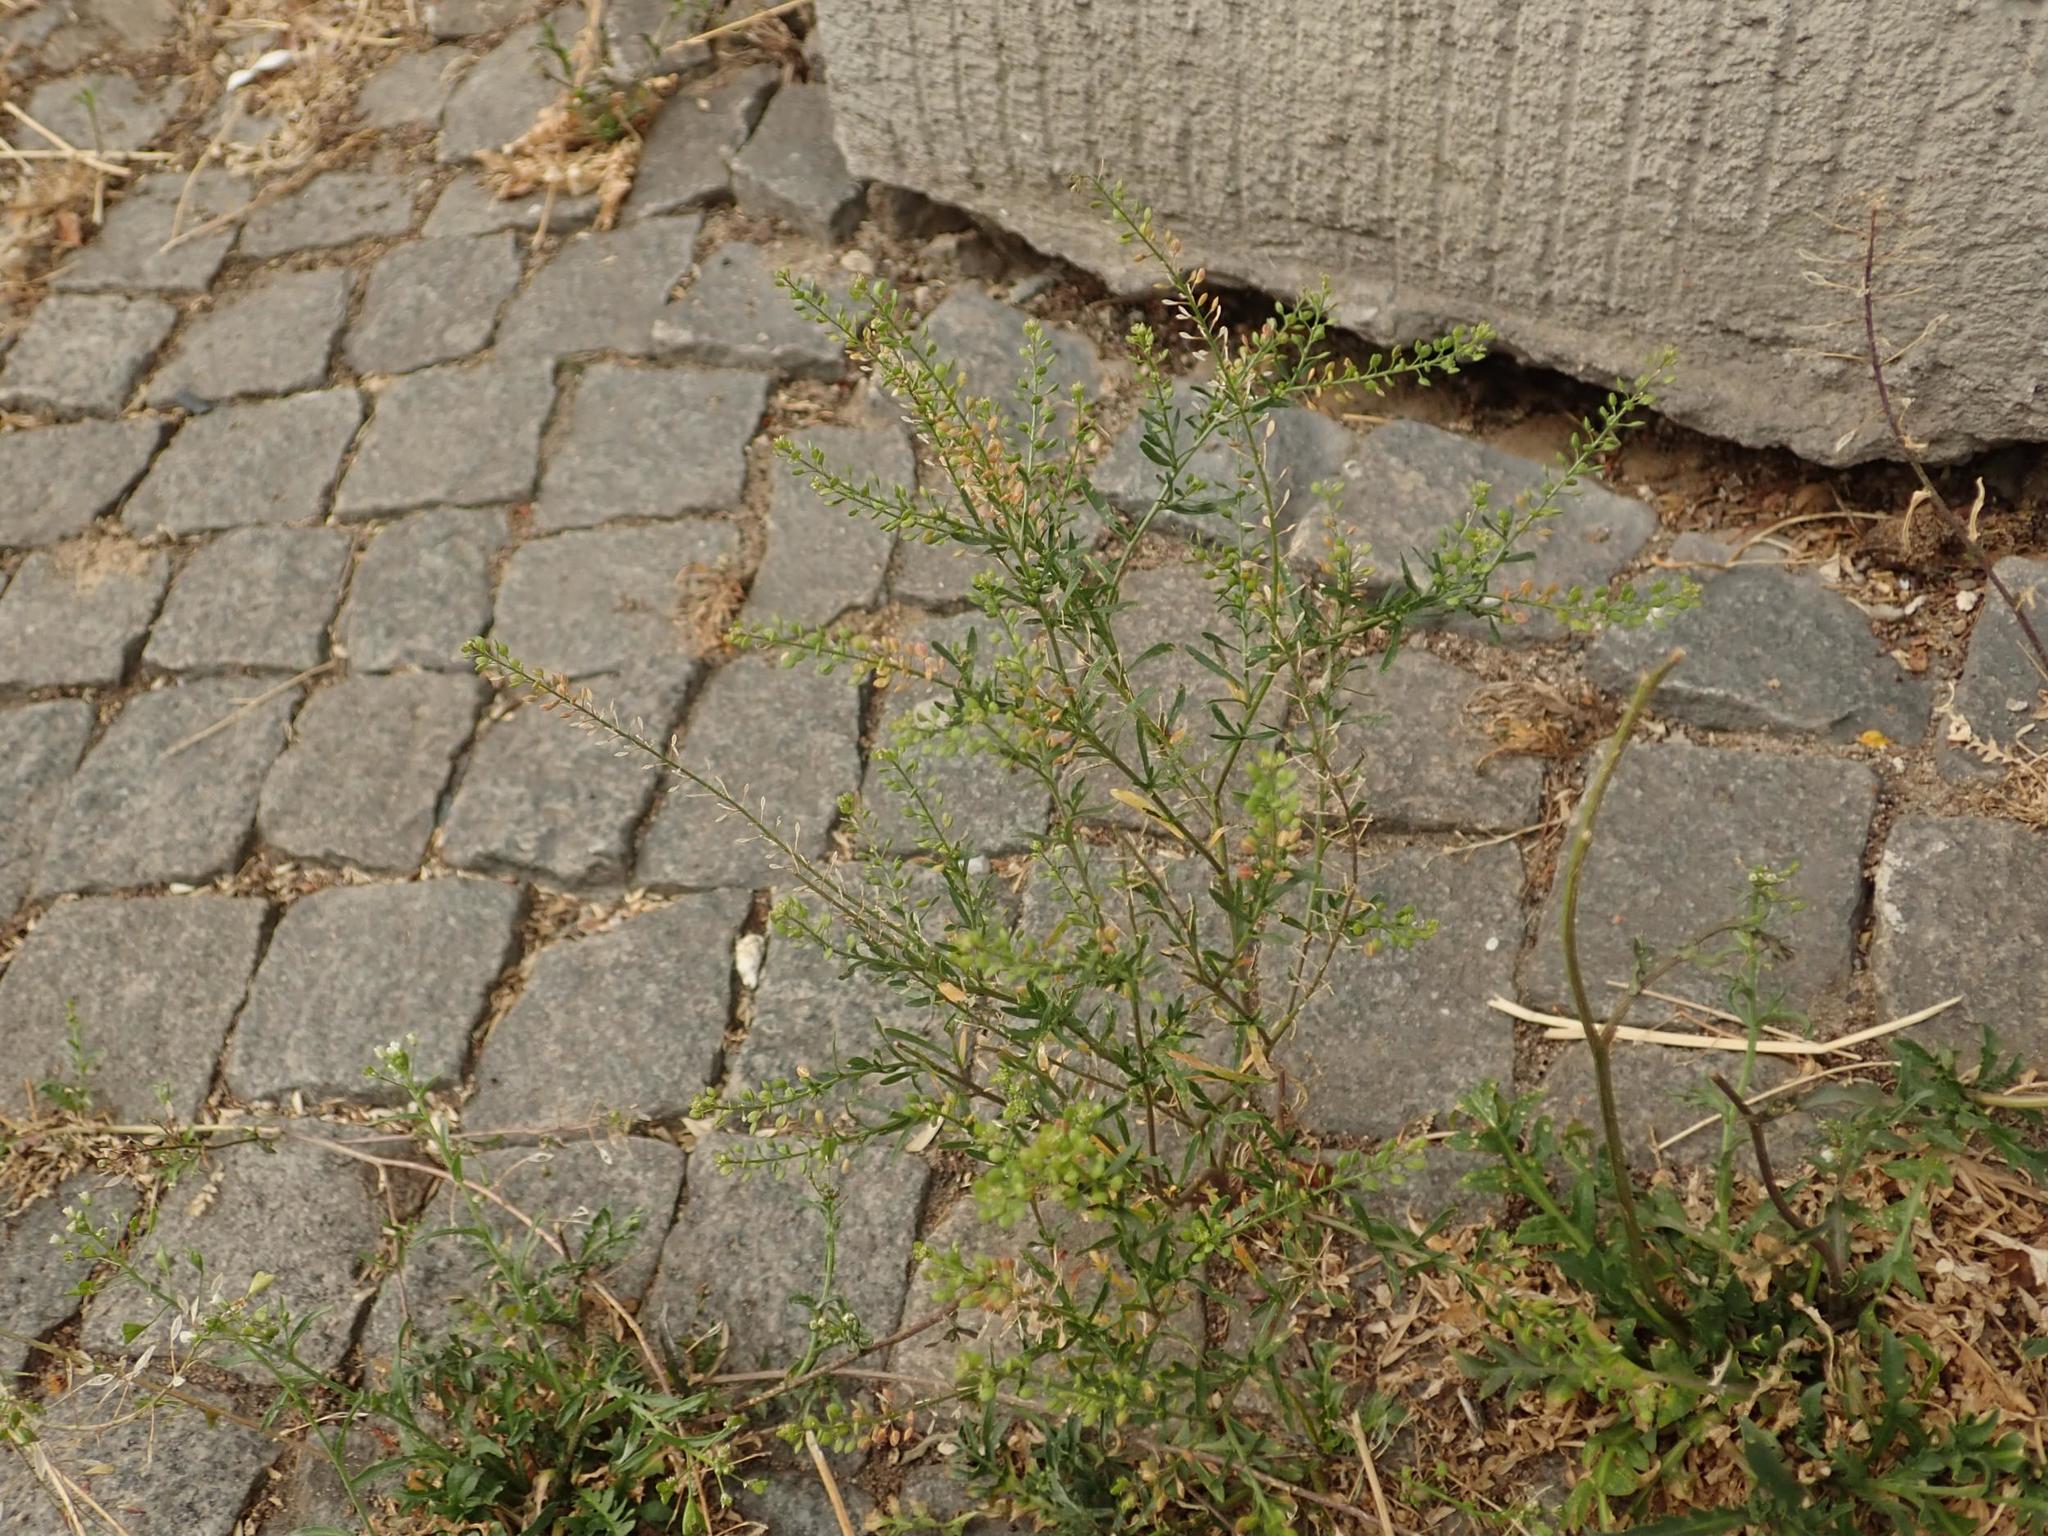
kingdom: Plantae
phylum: Tracheophyta
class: Magnoliopsida
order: Brassicales
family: Brassicaceae
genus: Lepidium
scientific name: Lepidium ruderale
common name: Narrow-leaved pepperwort
